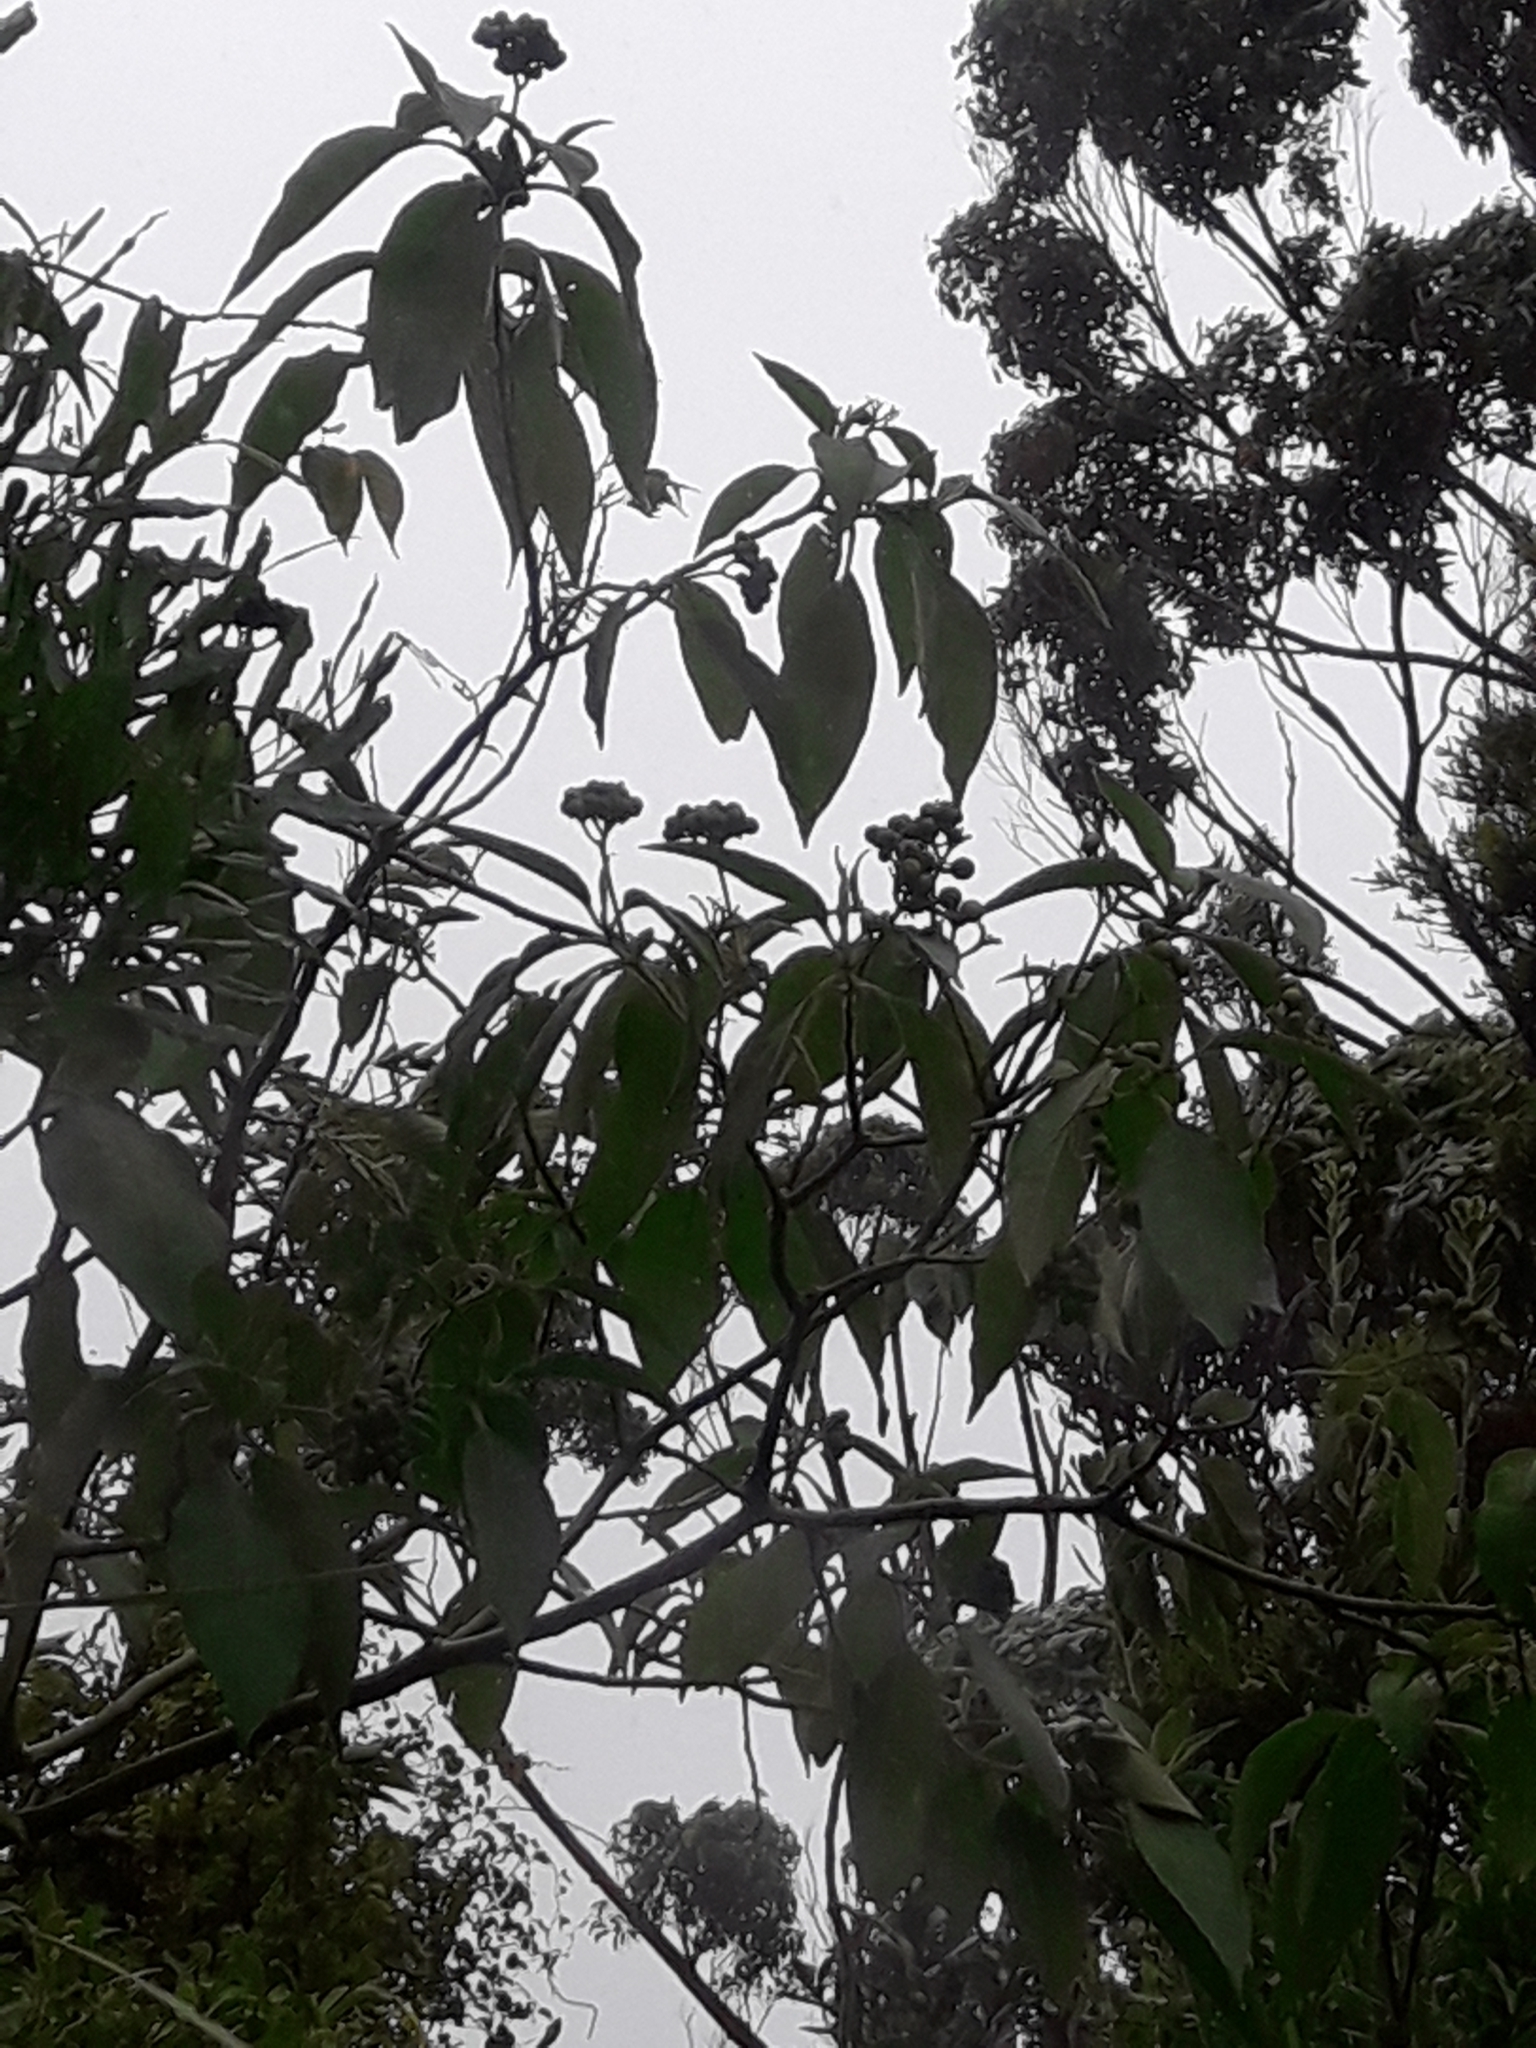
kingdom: Plantae
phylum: Tracheophyta
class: Magnoliopsida
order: Solanales
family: Solanaceae
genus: Solanum
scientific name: Solanum mauritianum
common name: Earleaf nightshade
